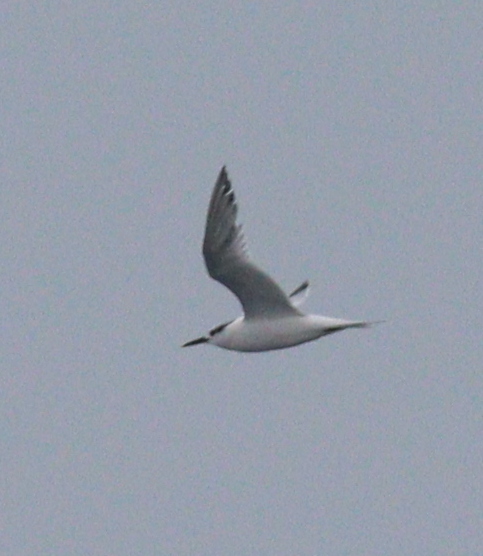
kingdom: Animalia
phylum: Chordata
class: Aves
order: Charadriiformes
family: Laridae
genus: Thalasseus
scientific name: Thalasseus sandvicensis
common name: Sandwich tern
